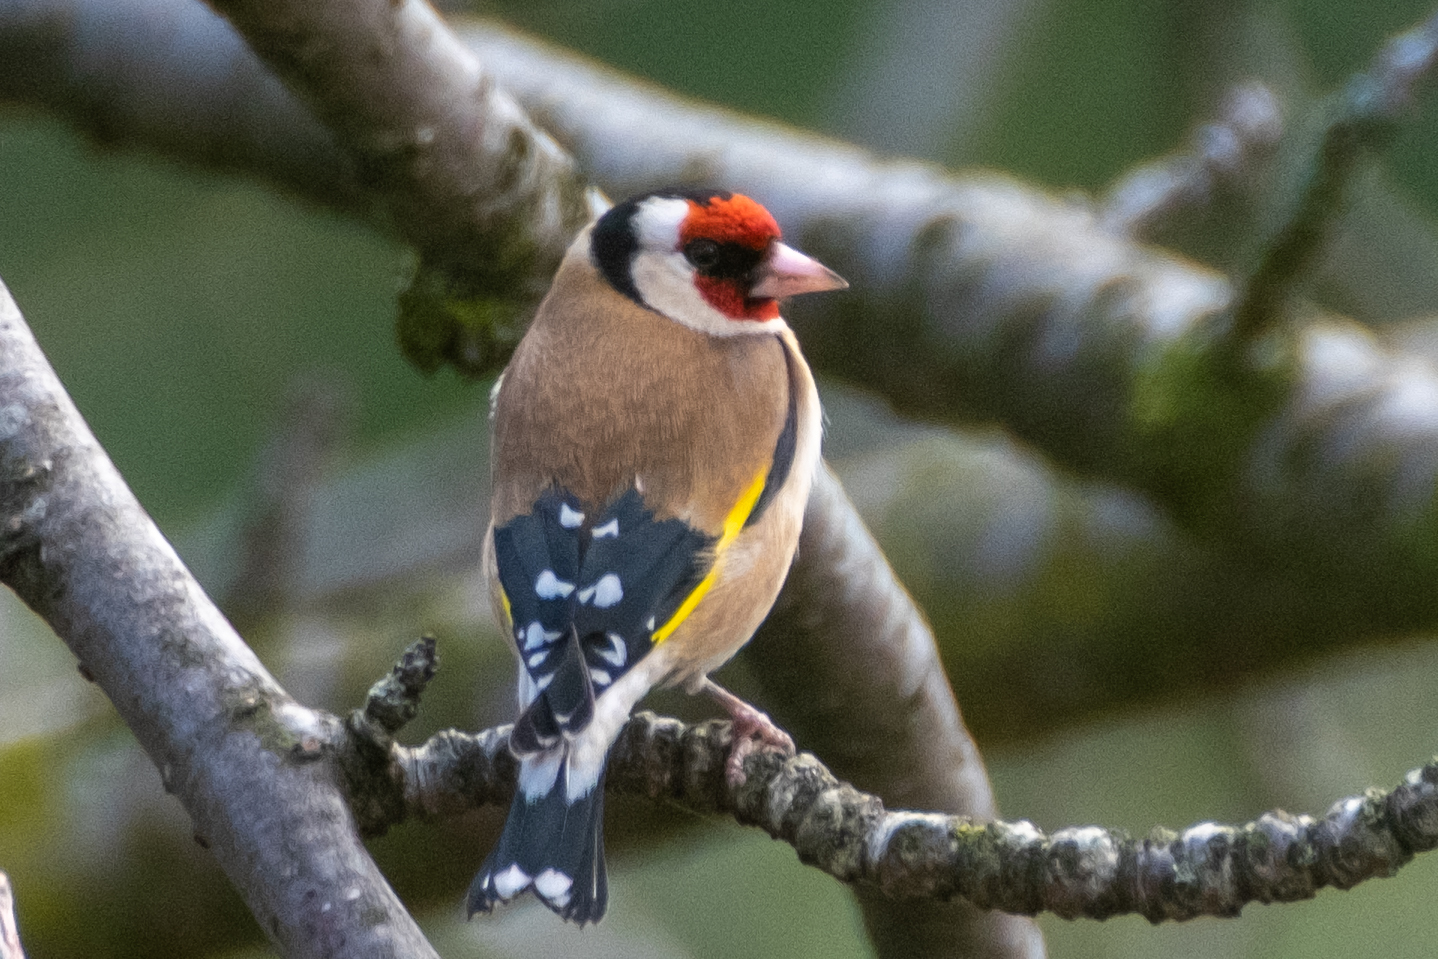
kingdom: Animalia
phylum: Chordata
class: Aves
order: Passeriformes
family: Fringillidae
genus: Carduelis
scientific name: Carduelis carduelis
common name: European goldfinch
